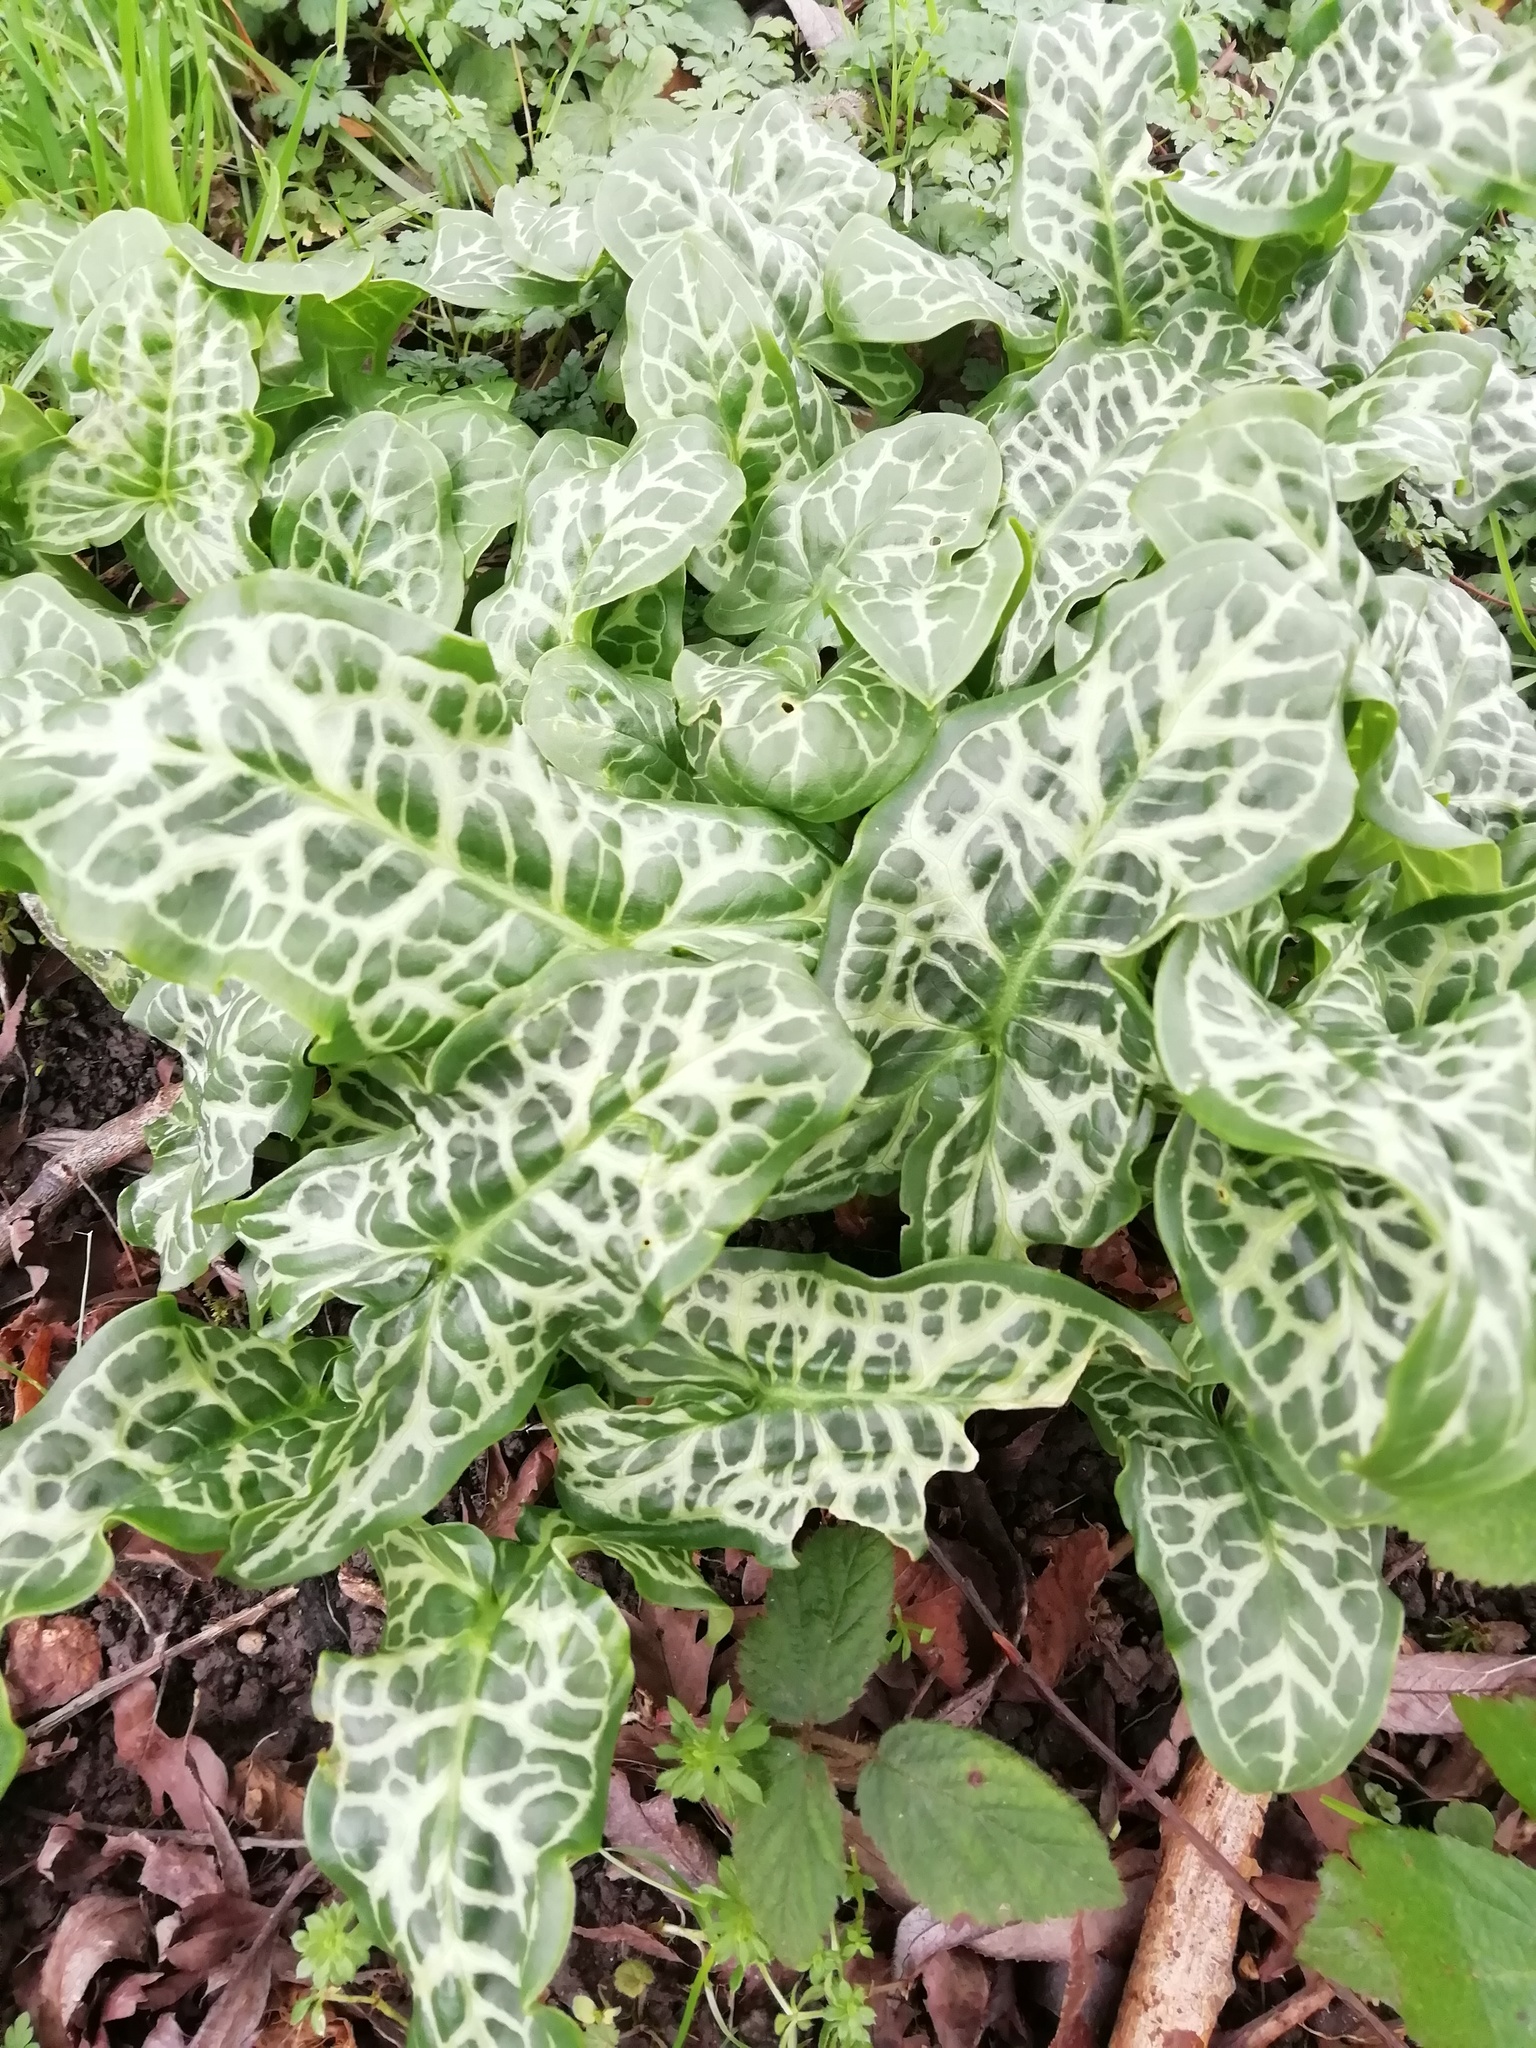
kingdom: Plantae
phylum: Tracheophyta
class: Liliopsida
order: Alismatales
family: Araceae
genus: Arum
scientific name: Arum italicum
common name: Italian lords-and-ladies
